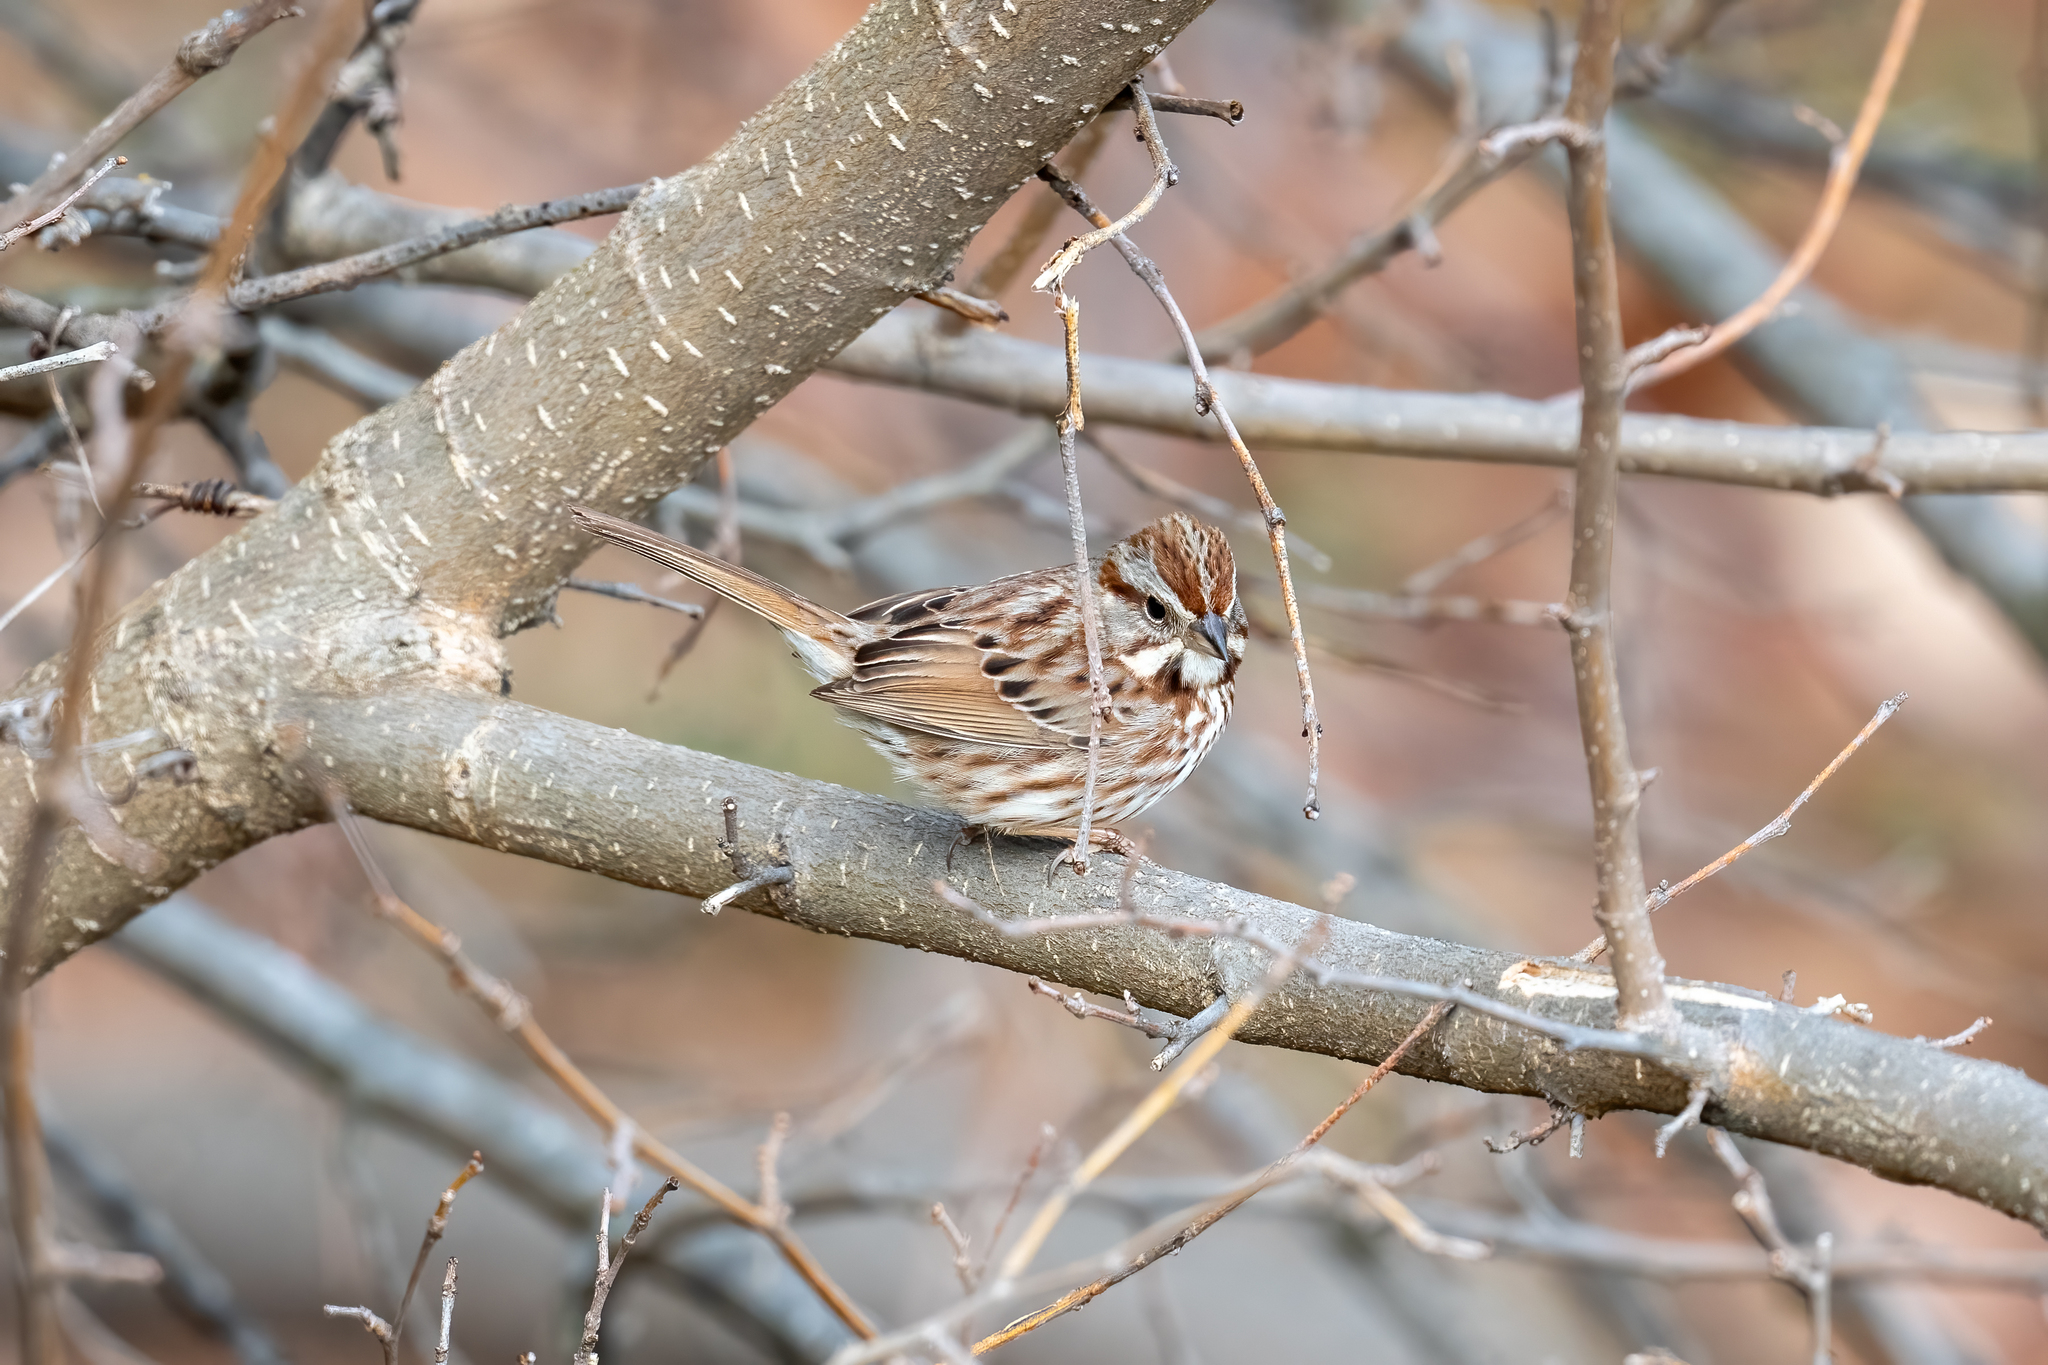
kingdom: Animalia
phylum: Chordata
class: Aves
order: Passeriformes
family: Passerellidae
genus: Melospiza
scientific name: Melospiza melodia
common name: Song sparrow
